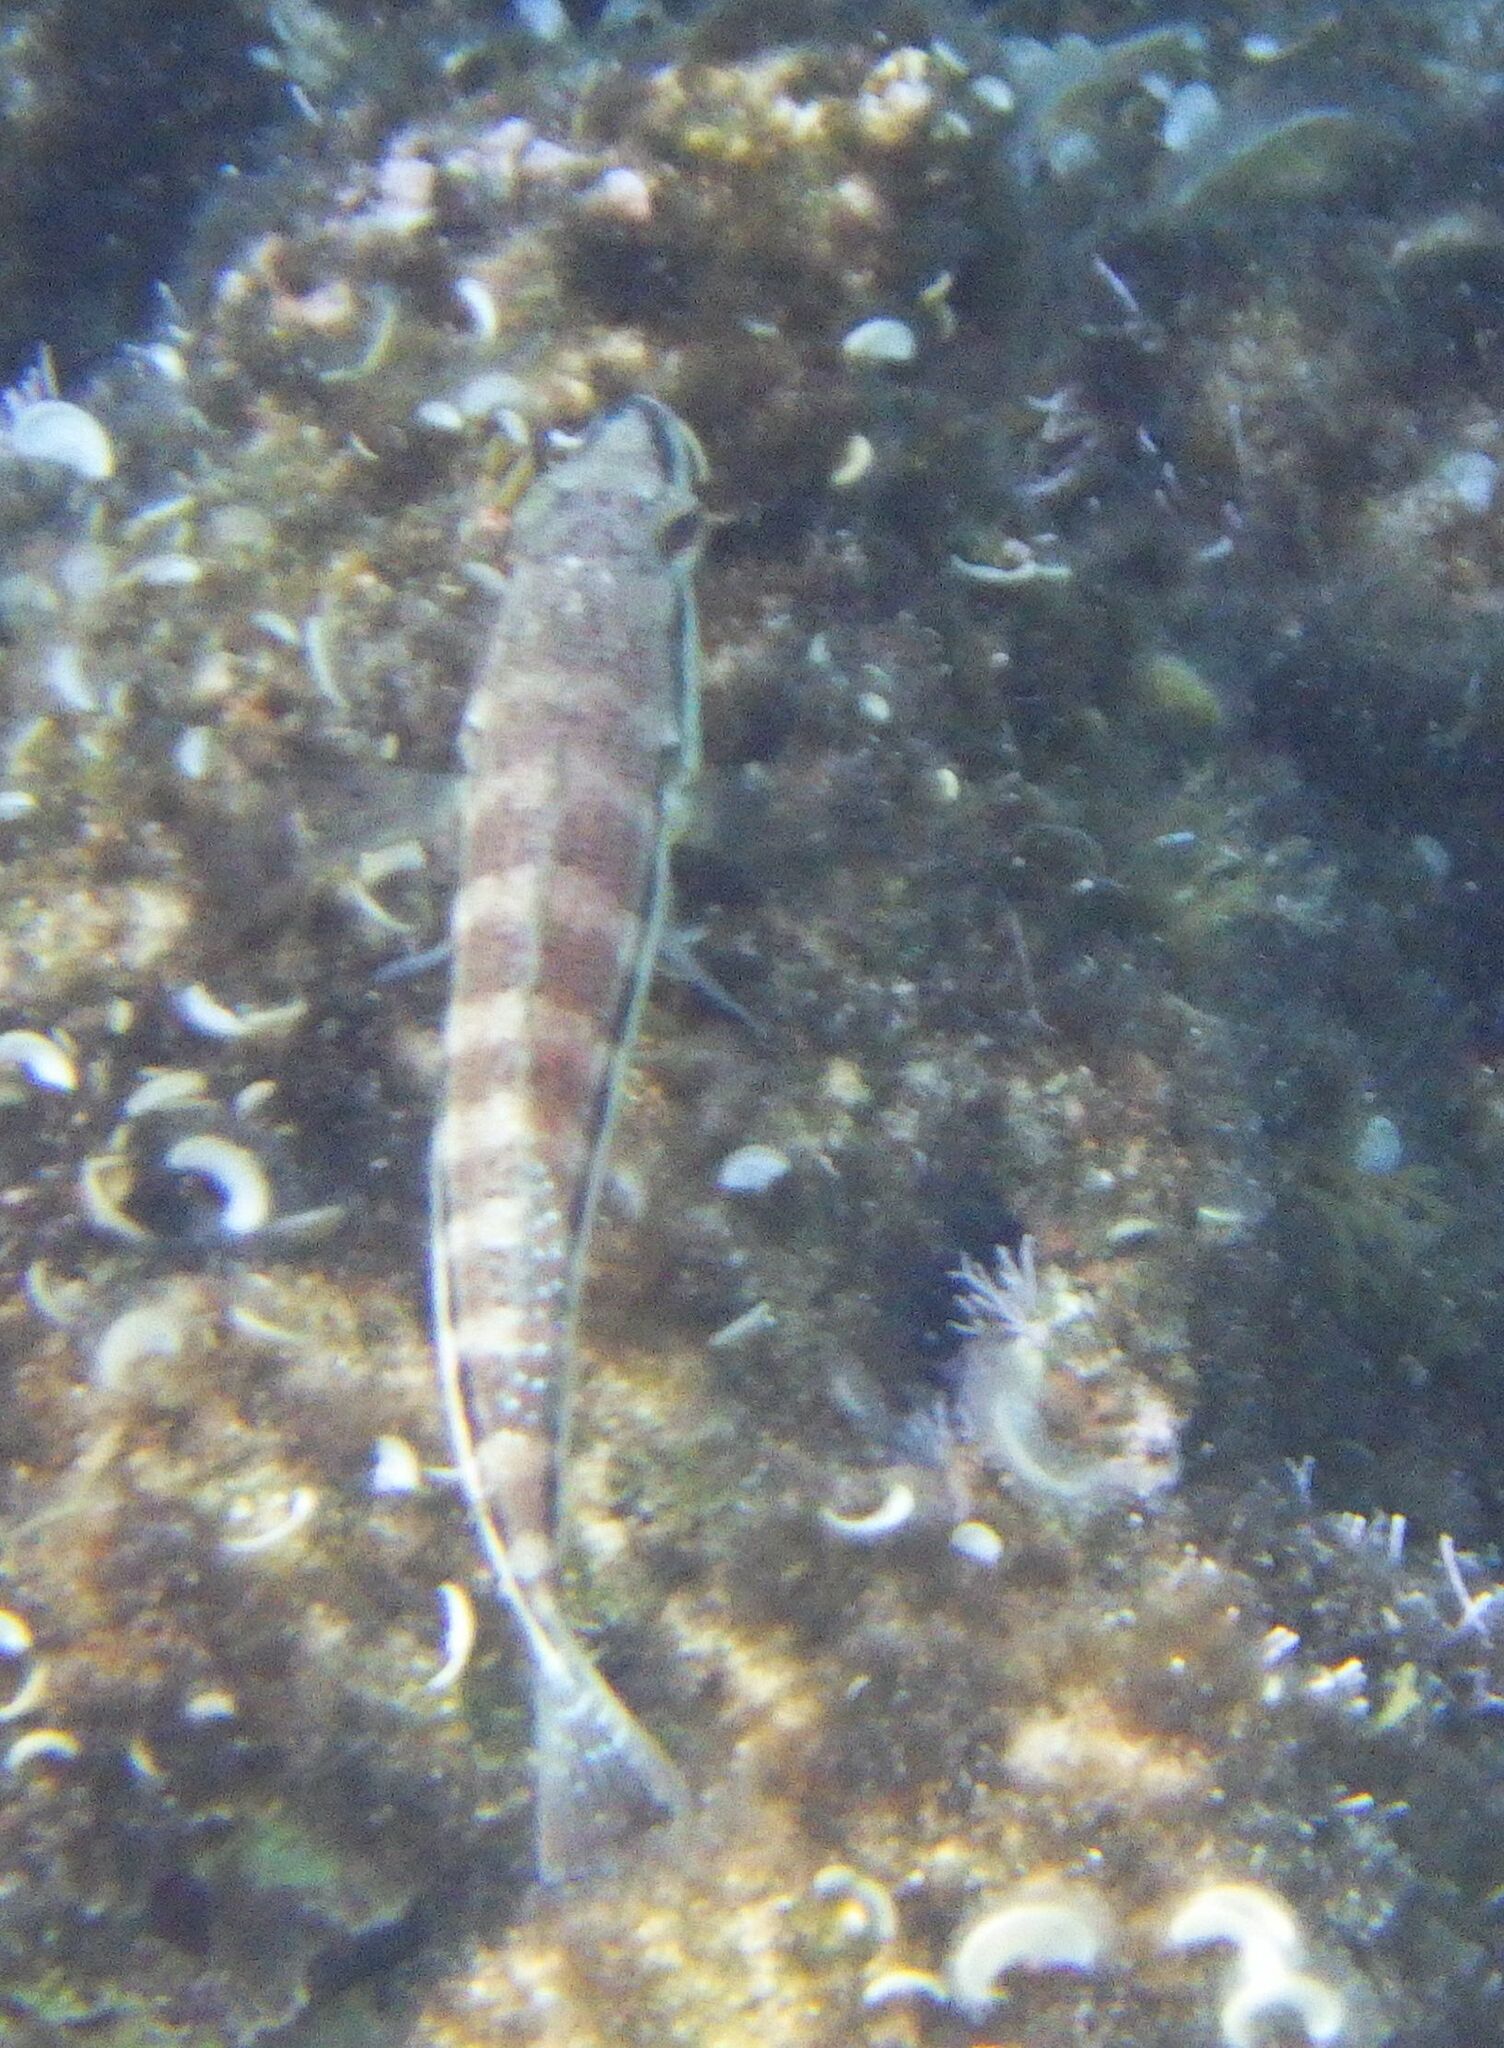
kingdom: Animalia
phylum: Chordata
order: Perciformes
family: Serranidae
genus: Serranus
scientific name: Serranus cabrilla
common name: Comber
